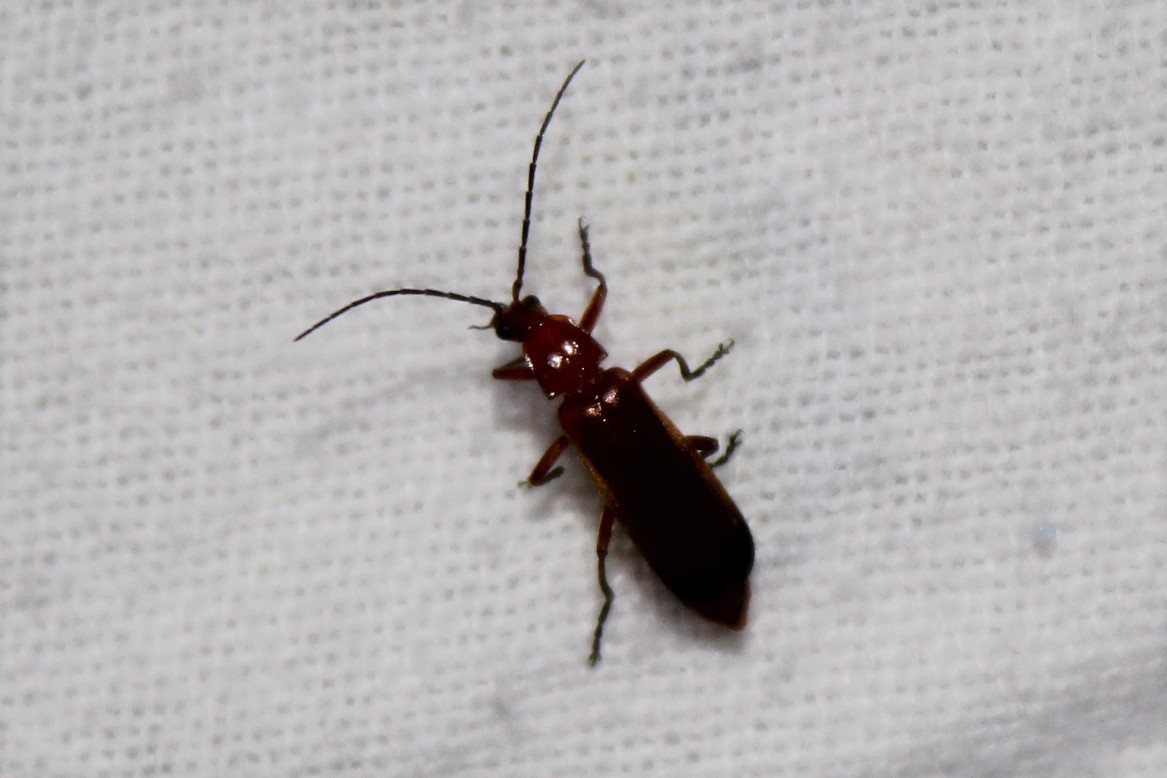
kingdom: Animalia
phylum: Arthropoda
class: Insecta
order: Coleoptera
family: Cantharidae
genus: Rhagonycha
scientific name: Rhagonycha fulva
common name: Common red soldier beetle
